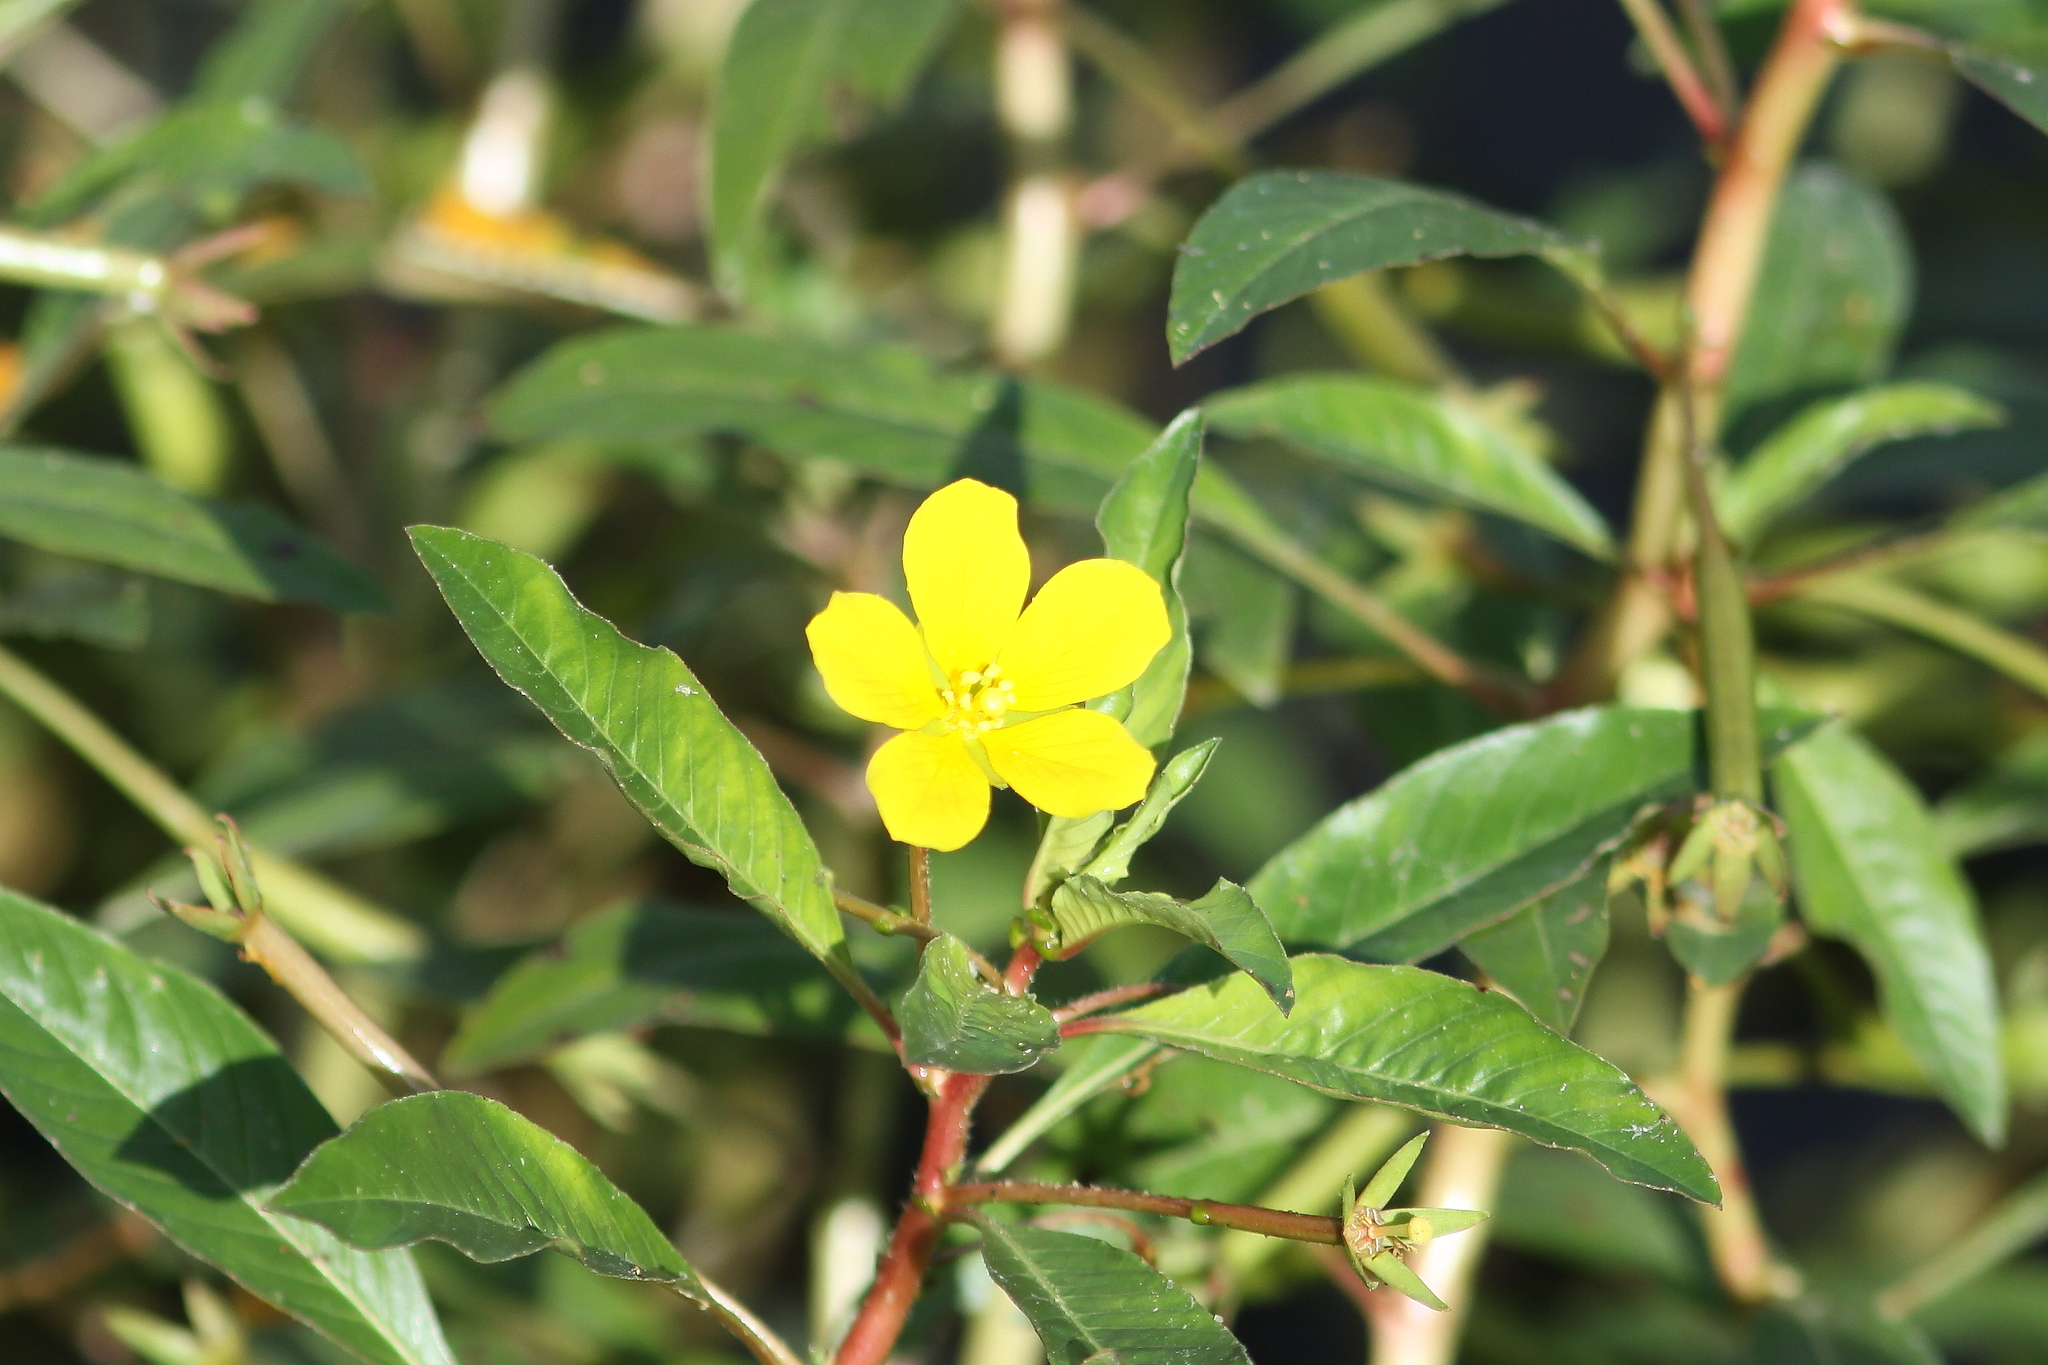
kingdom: Plantae
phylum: Tracheophyta
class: Magnoliopsida
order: Myrtales
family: Onagraceae
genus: Ludwigia
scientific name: Ludwigia peploides
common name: Floating primrose-willow
